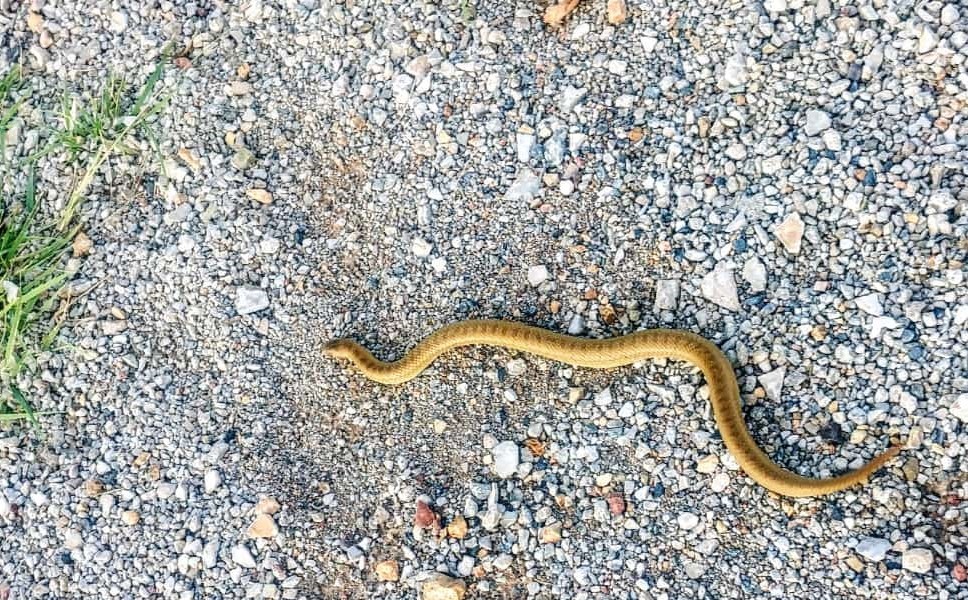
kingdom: Animalia
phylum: Chordata
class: Squamata
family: Colubridae
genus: Conopsis
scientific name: Conopsis nasus
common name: Largenose earth snake
